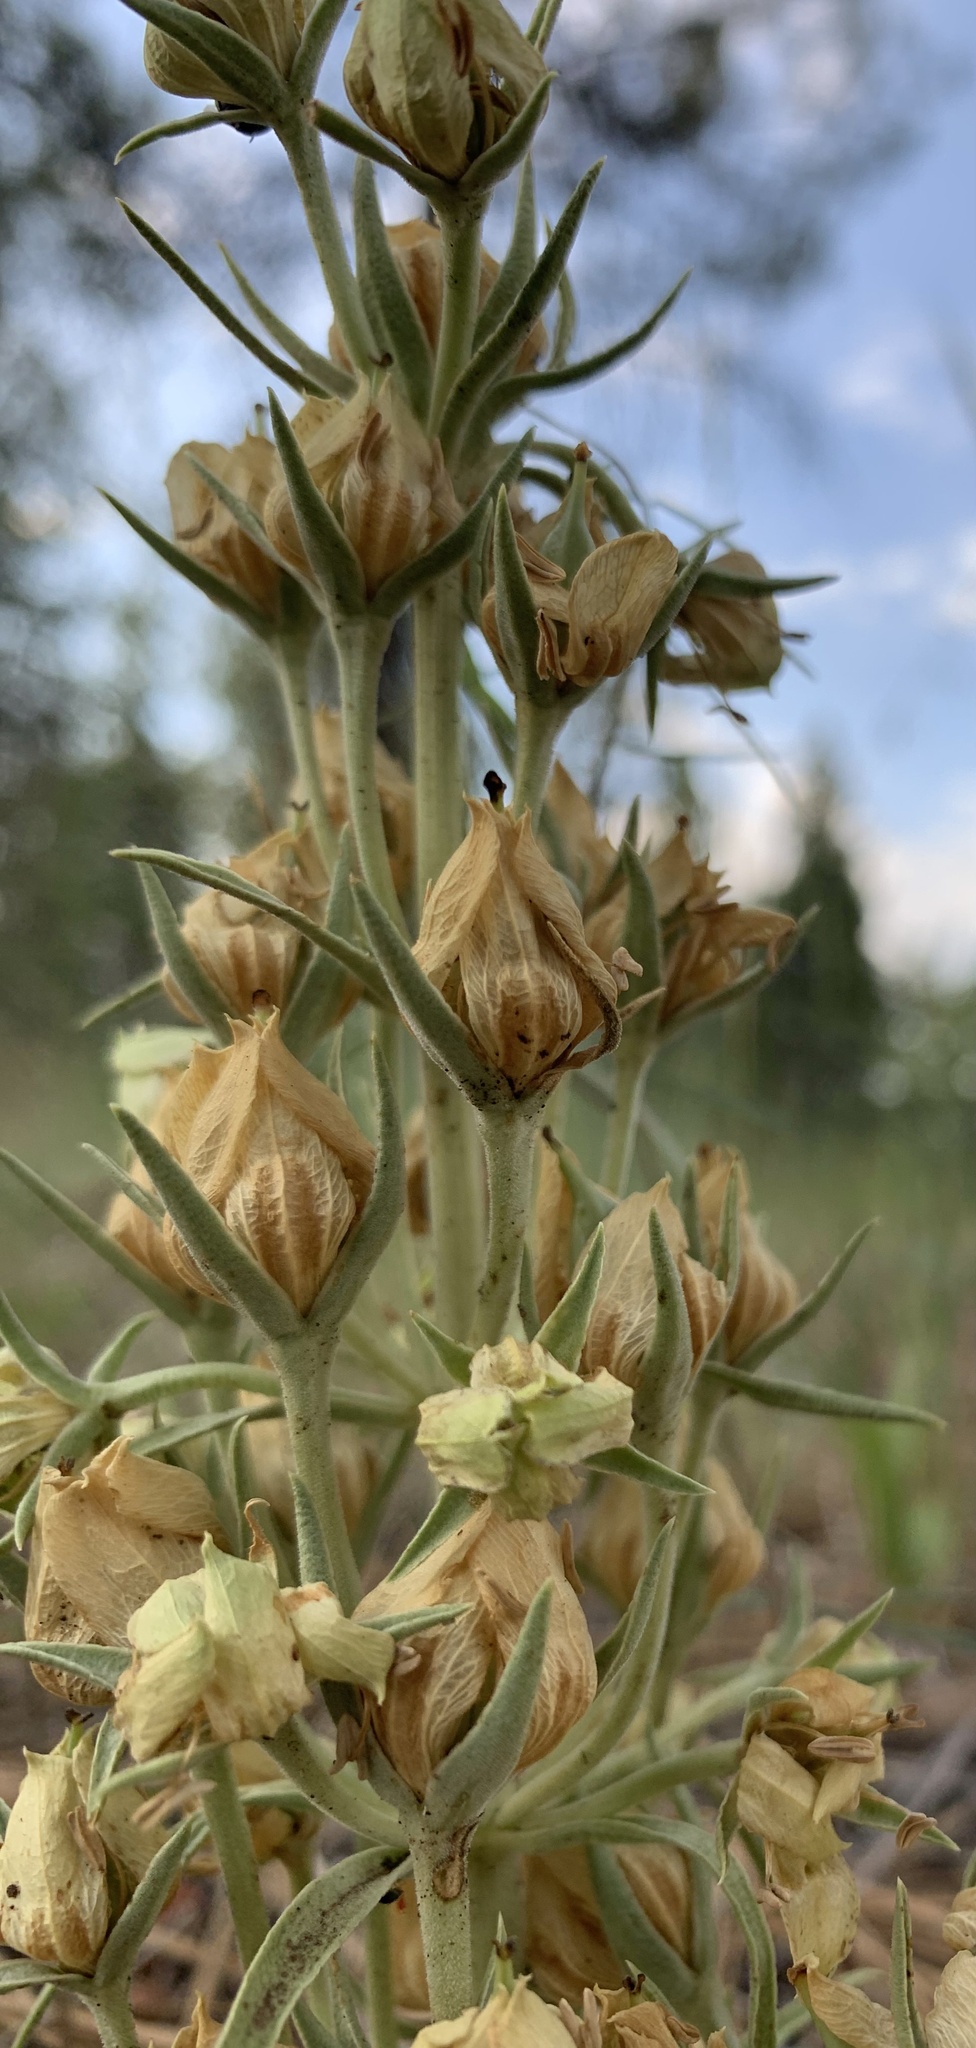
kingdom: Plantae
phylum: Tracheophyta
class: Magnoliopsida
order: Gentianales
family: Gentianaceae
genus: Frasera
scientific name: Frasera speciosa
